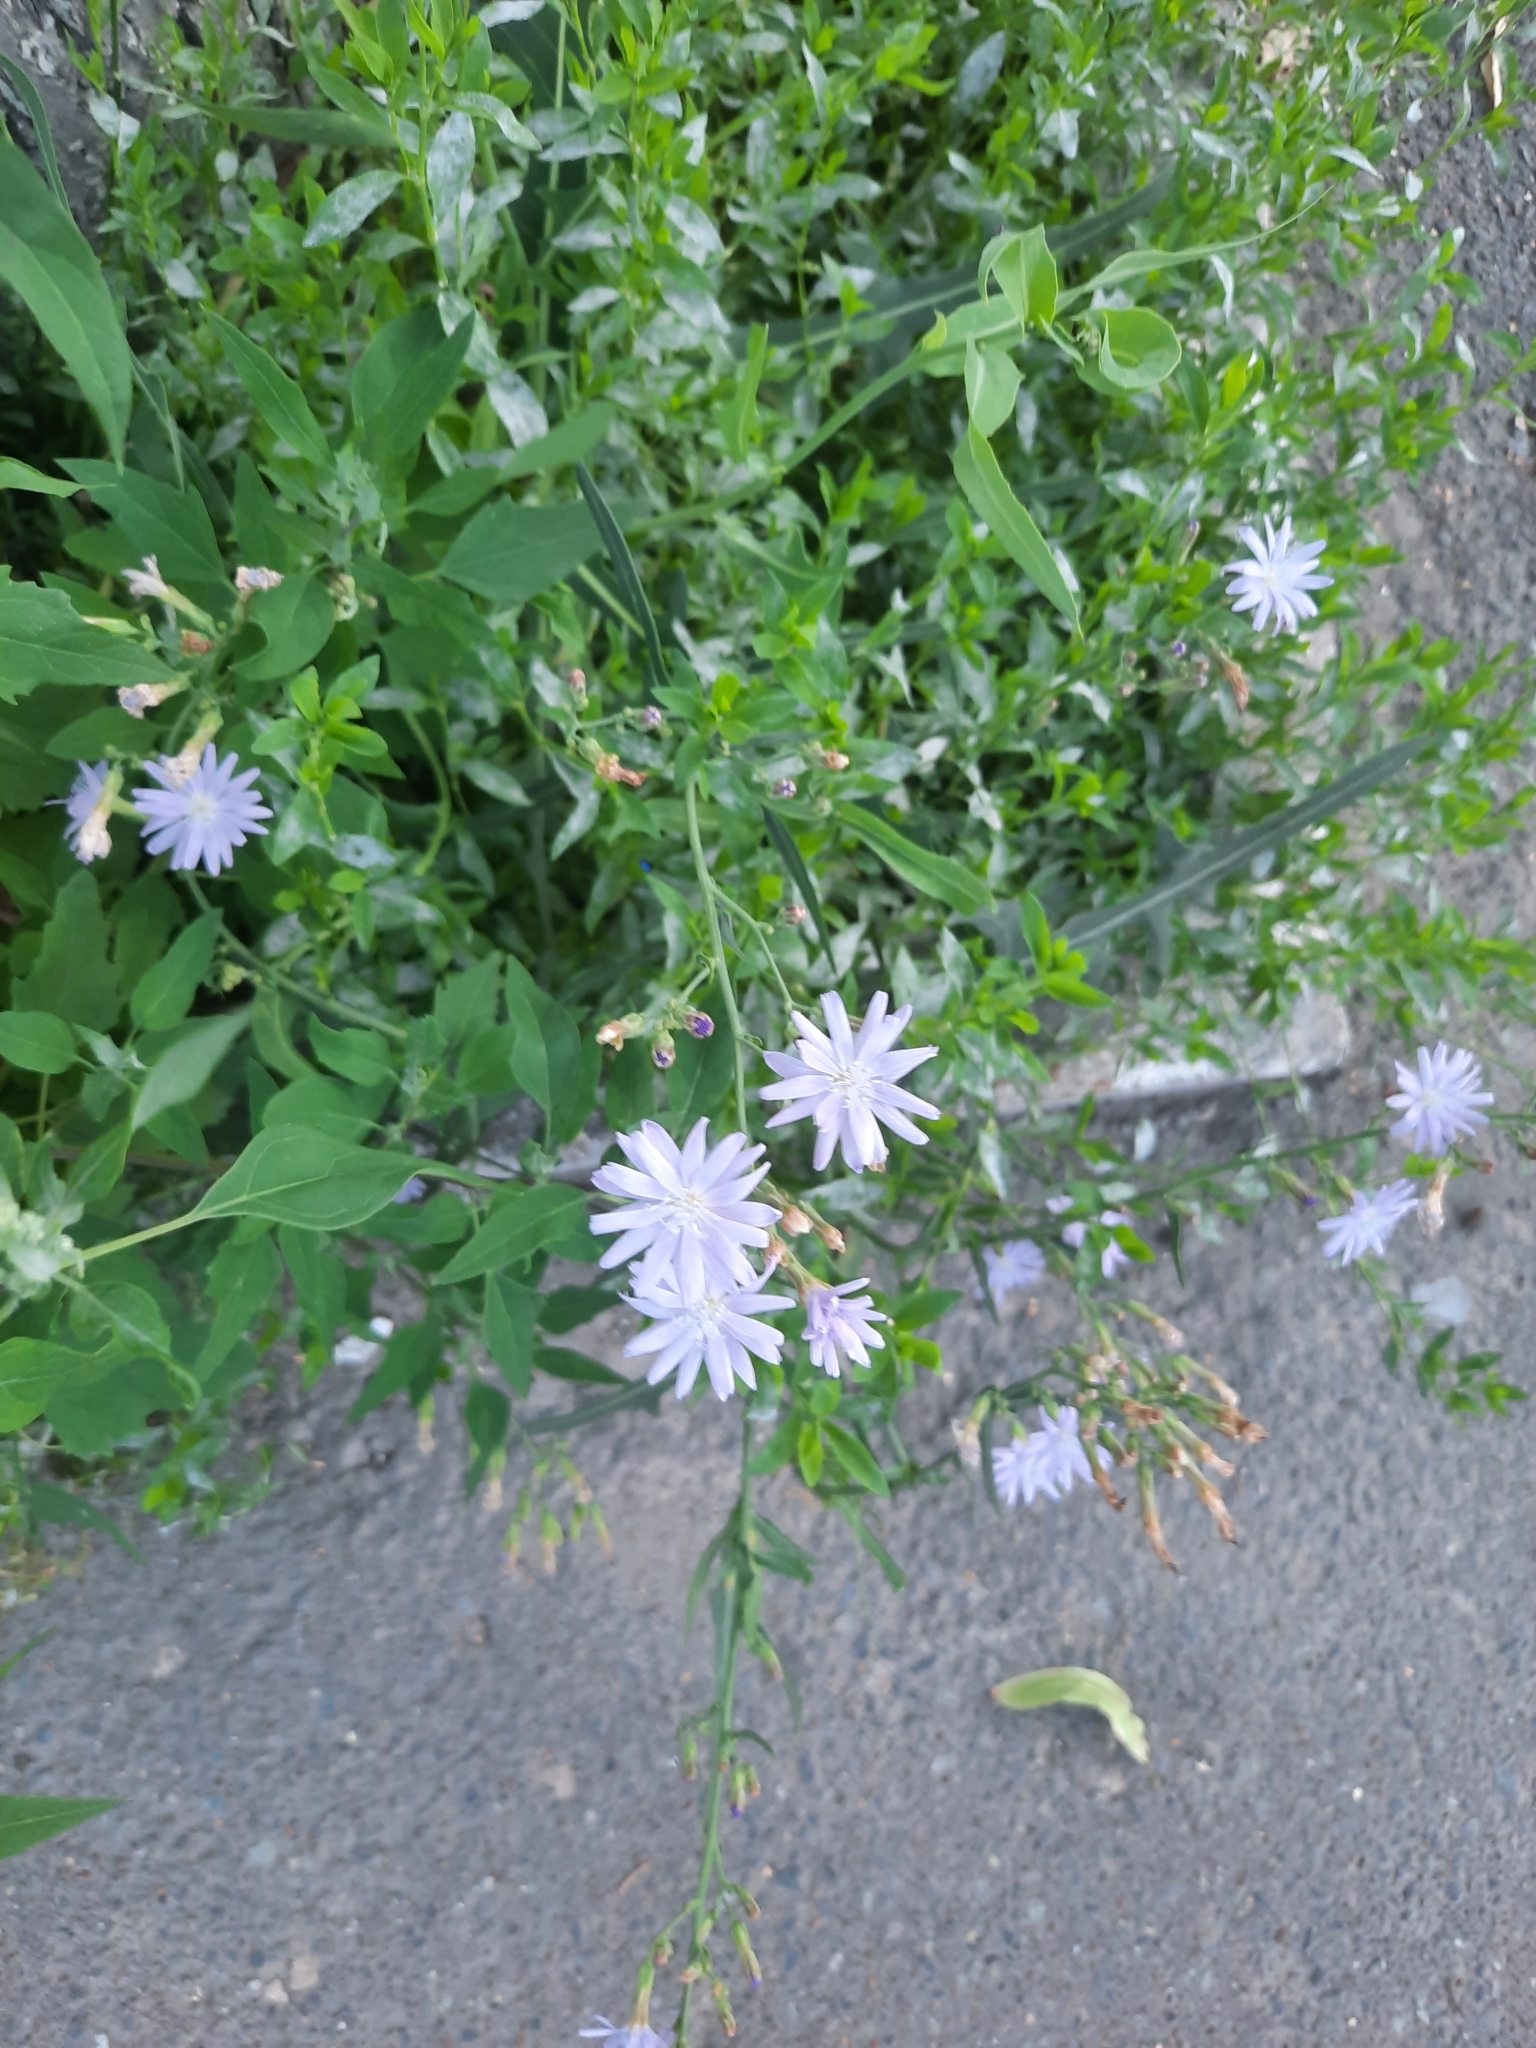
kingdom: Plantae
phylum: Tracheophyta
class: Magnoliopsida
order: Asterales
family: Asteraceae
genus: Lactuca
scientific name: Lactuca tatarica
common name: Blue lettuce
